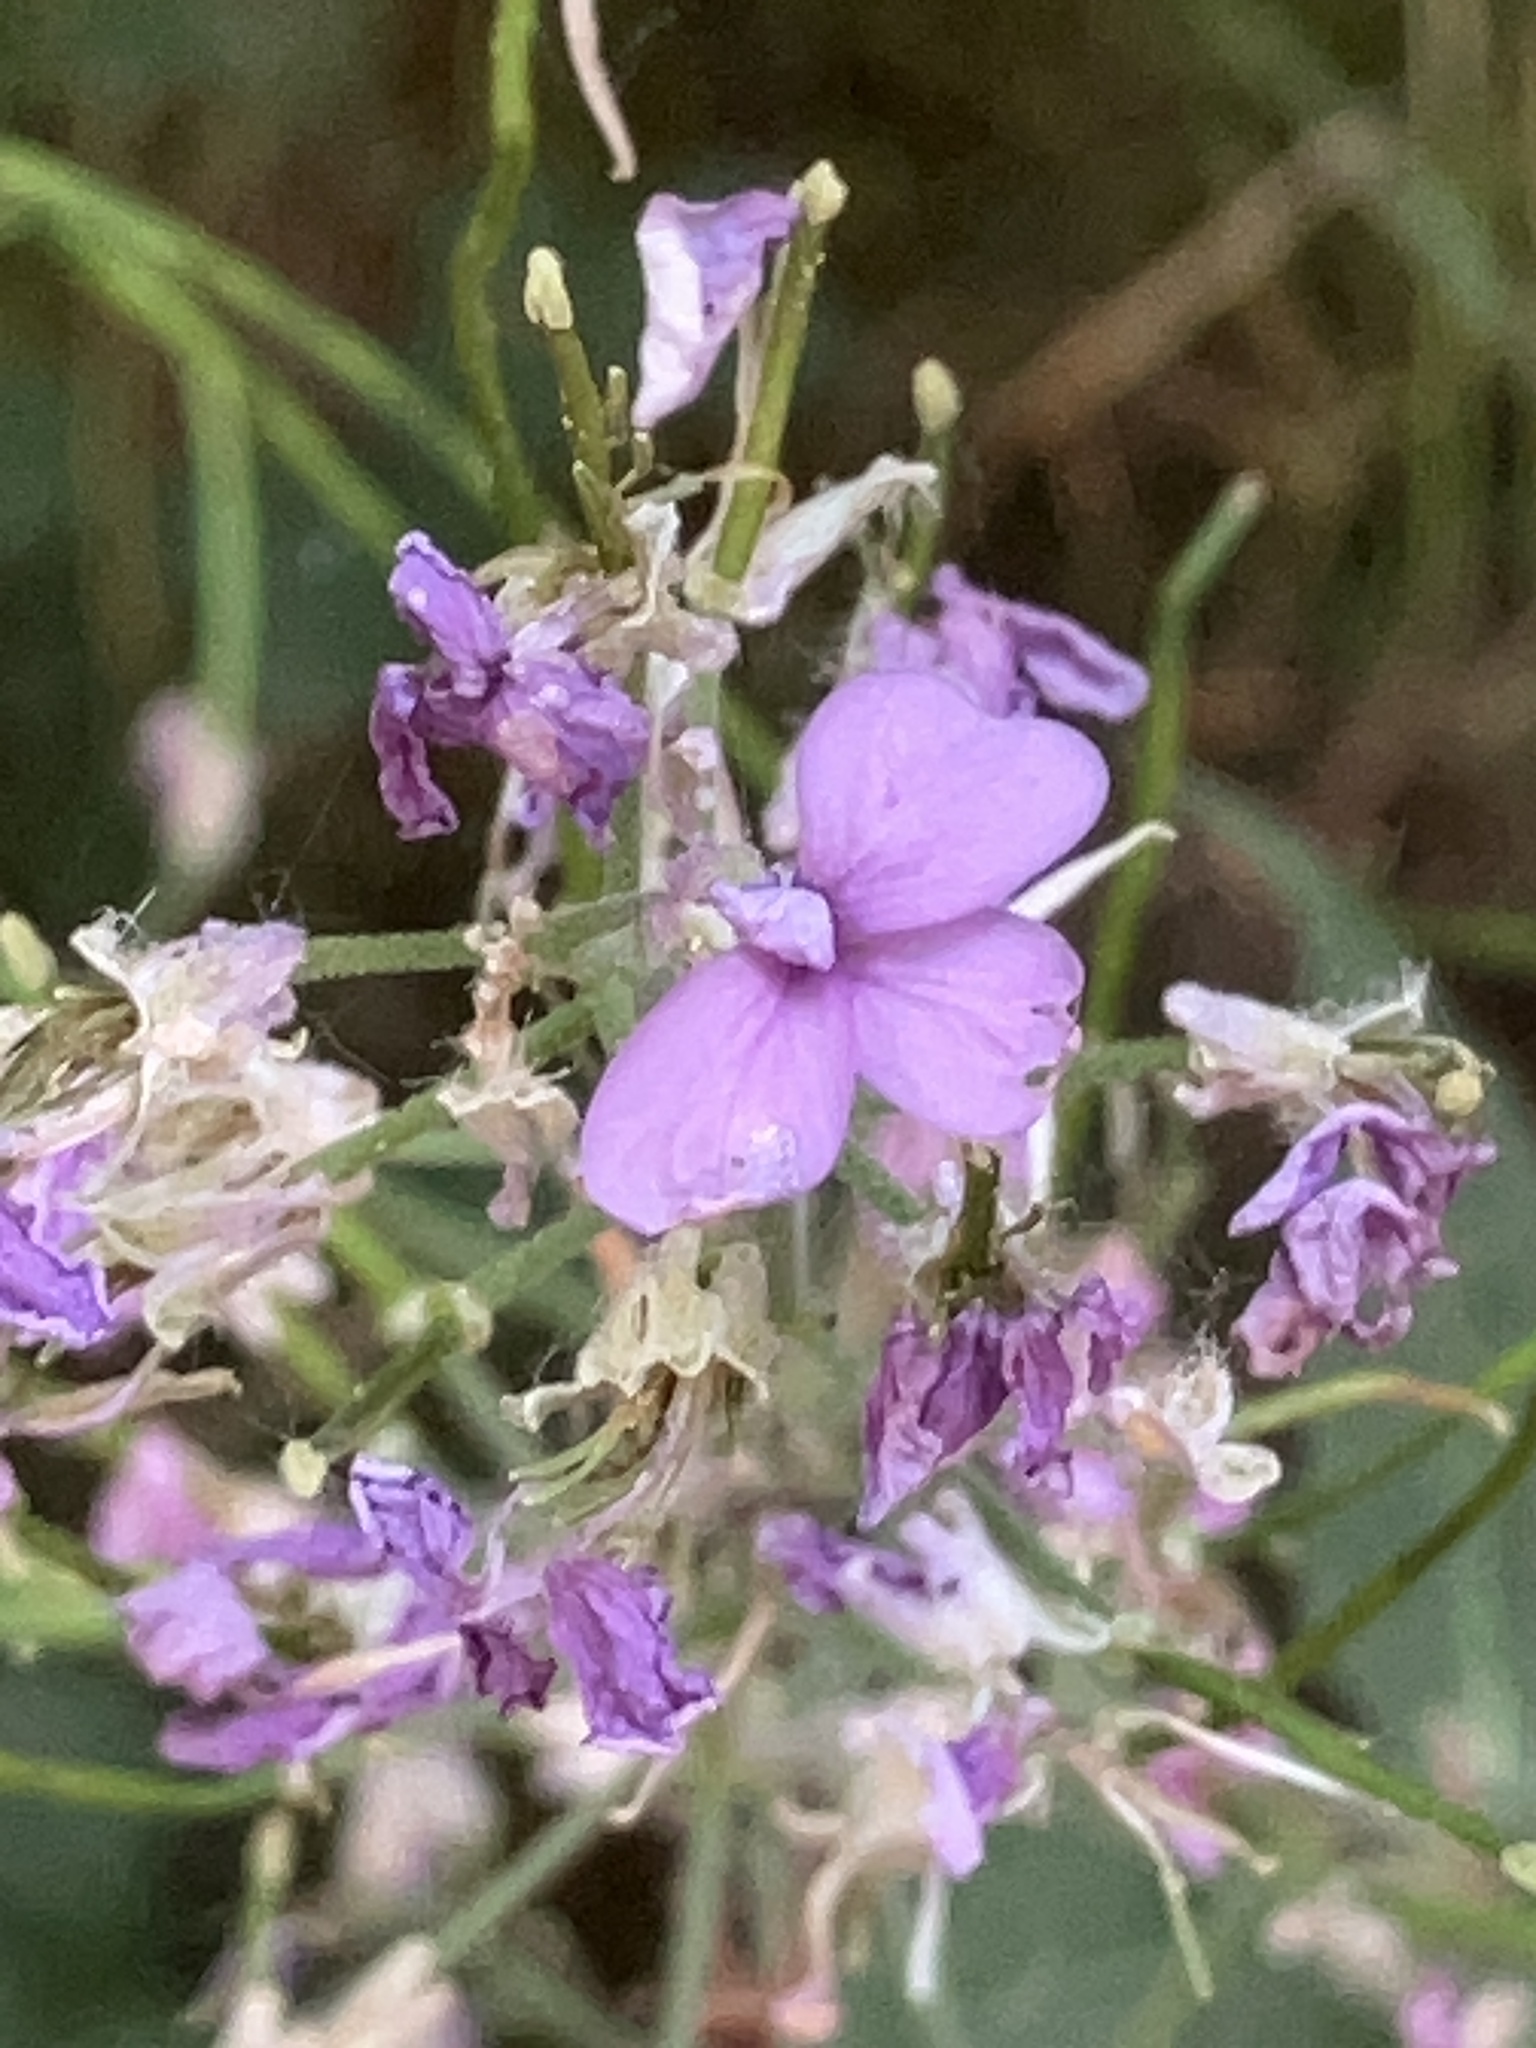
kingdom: Plantae
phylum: Tracheophyta
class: Magnoliopsida
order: Brassicales
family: Brassicaceae
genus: Hesperis
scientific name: Hesperis matronalis
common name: Dame's-violet
